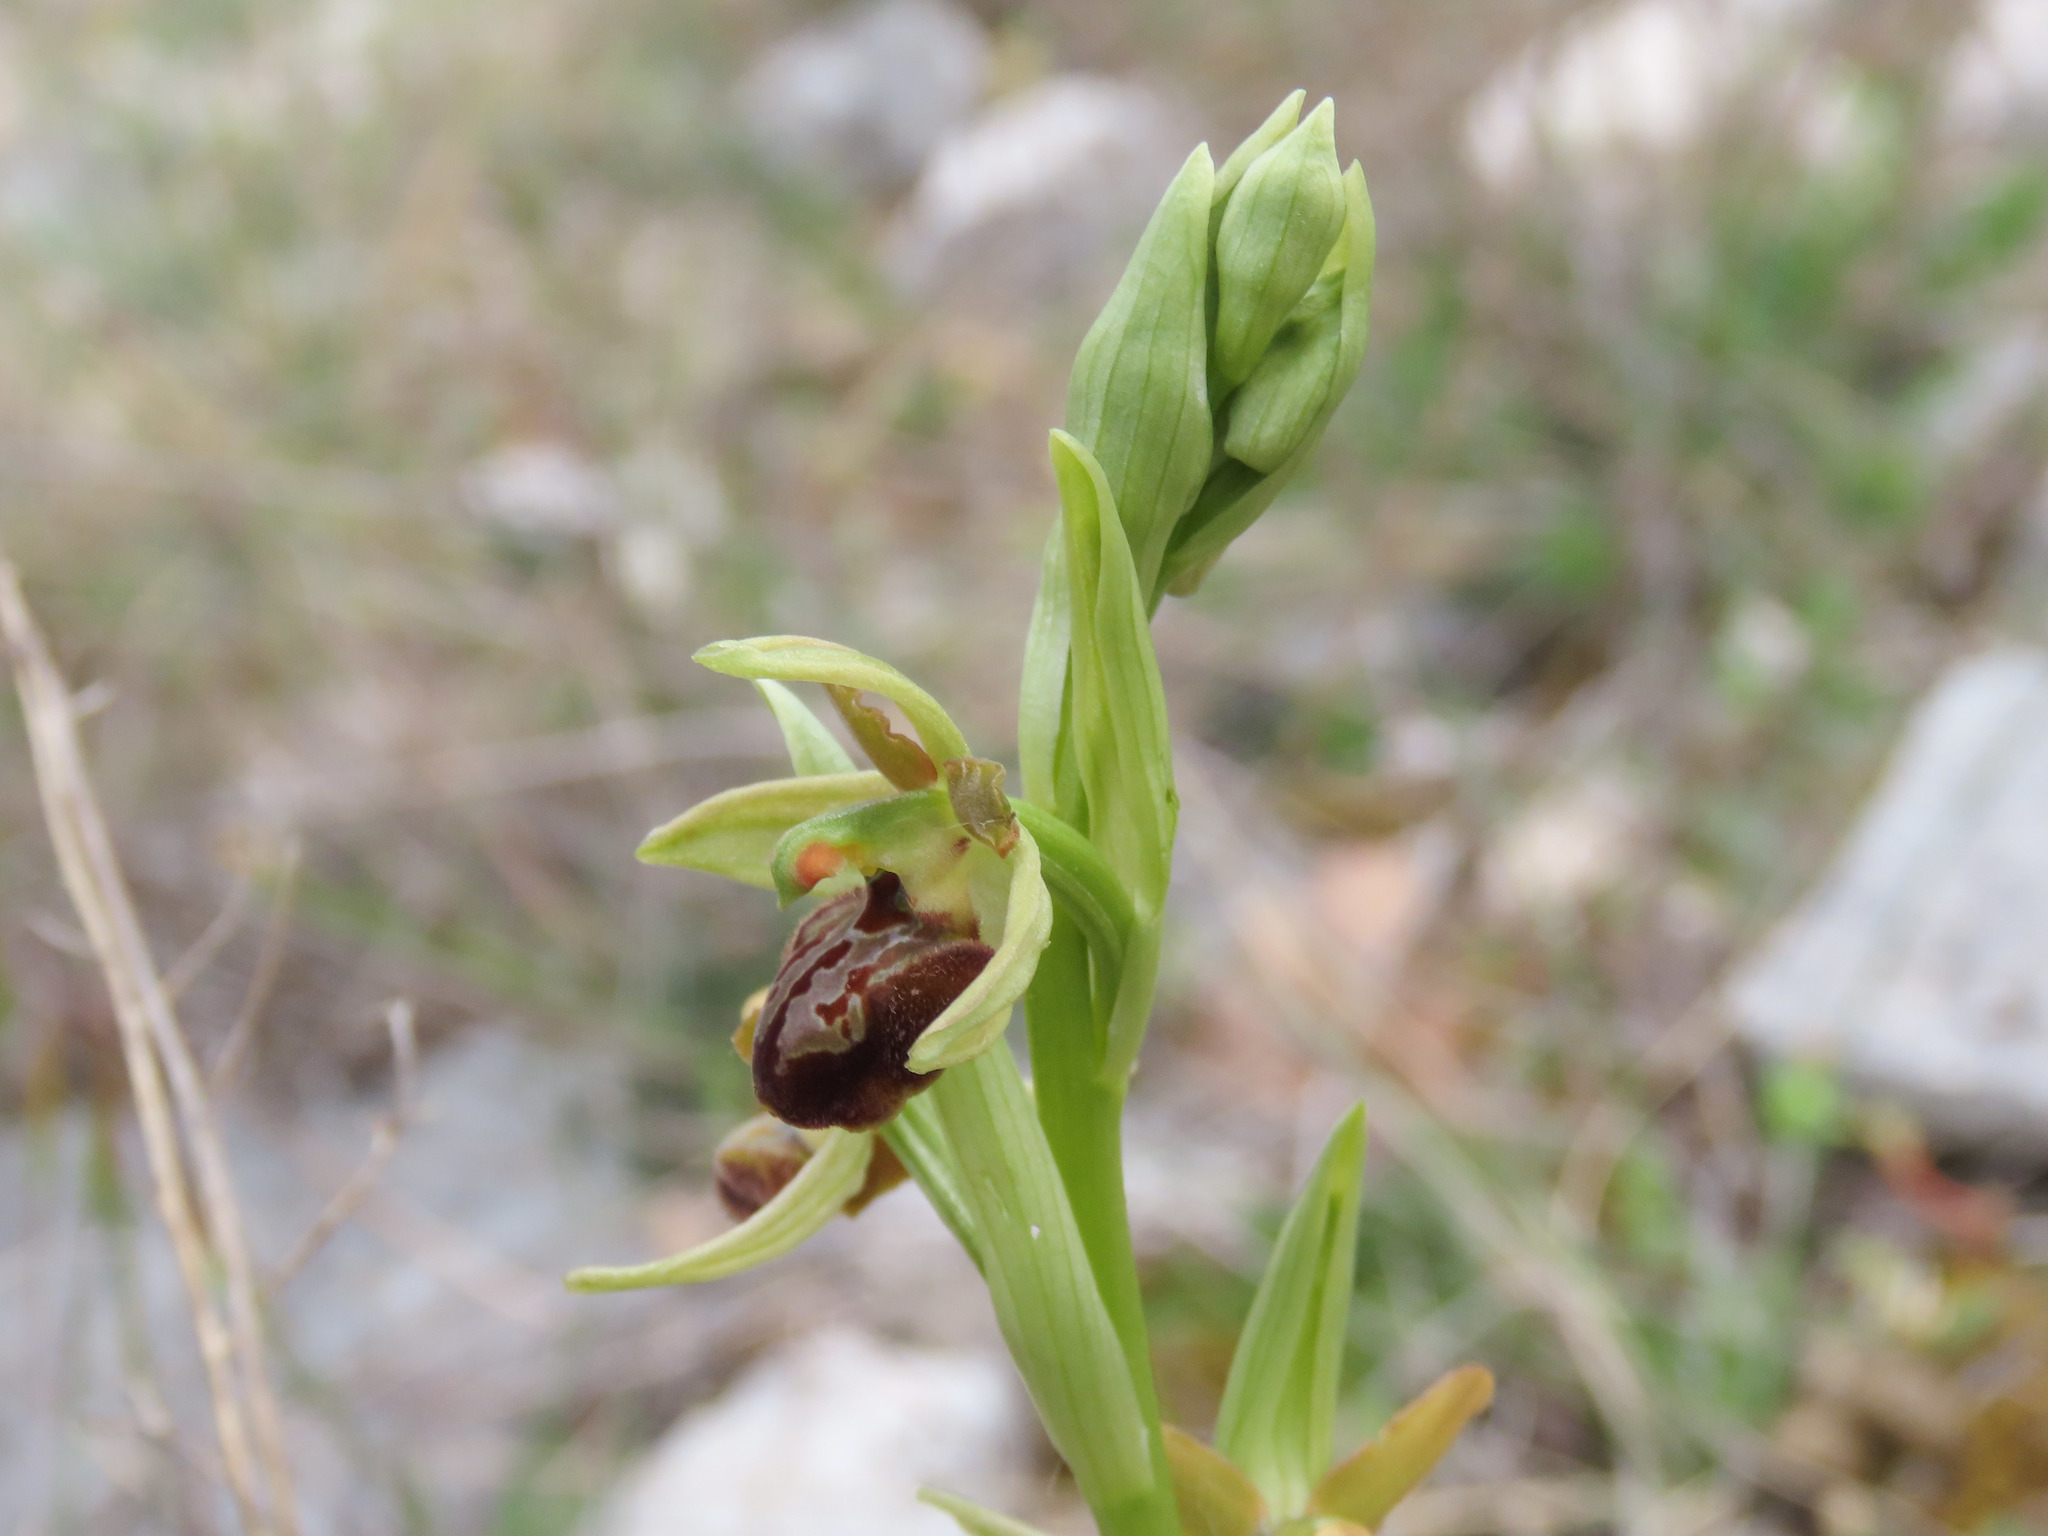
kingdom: Plantae
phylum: Tracheophyta
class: Liliopsida
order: Asparagales
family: Orchidaceae
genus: Ophrys
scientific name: Ophrys sphegodes
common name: Early spider-orchid
